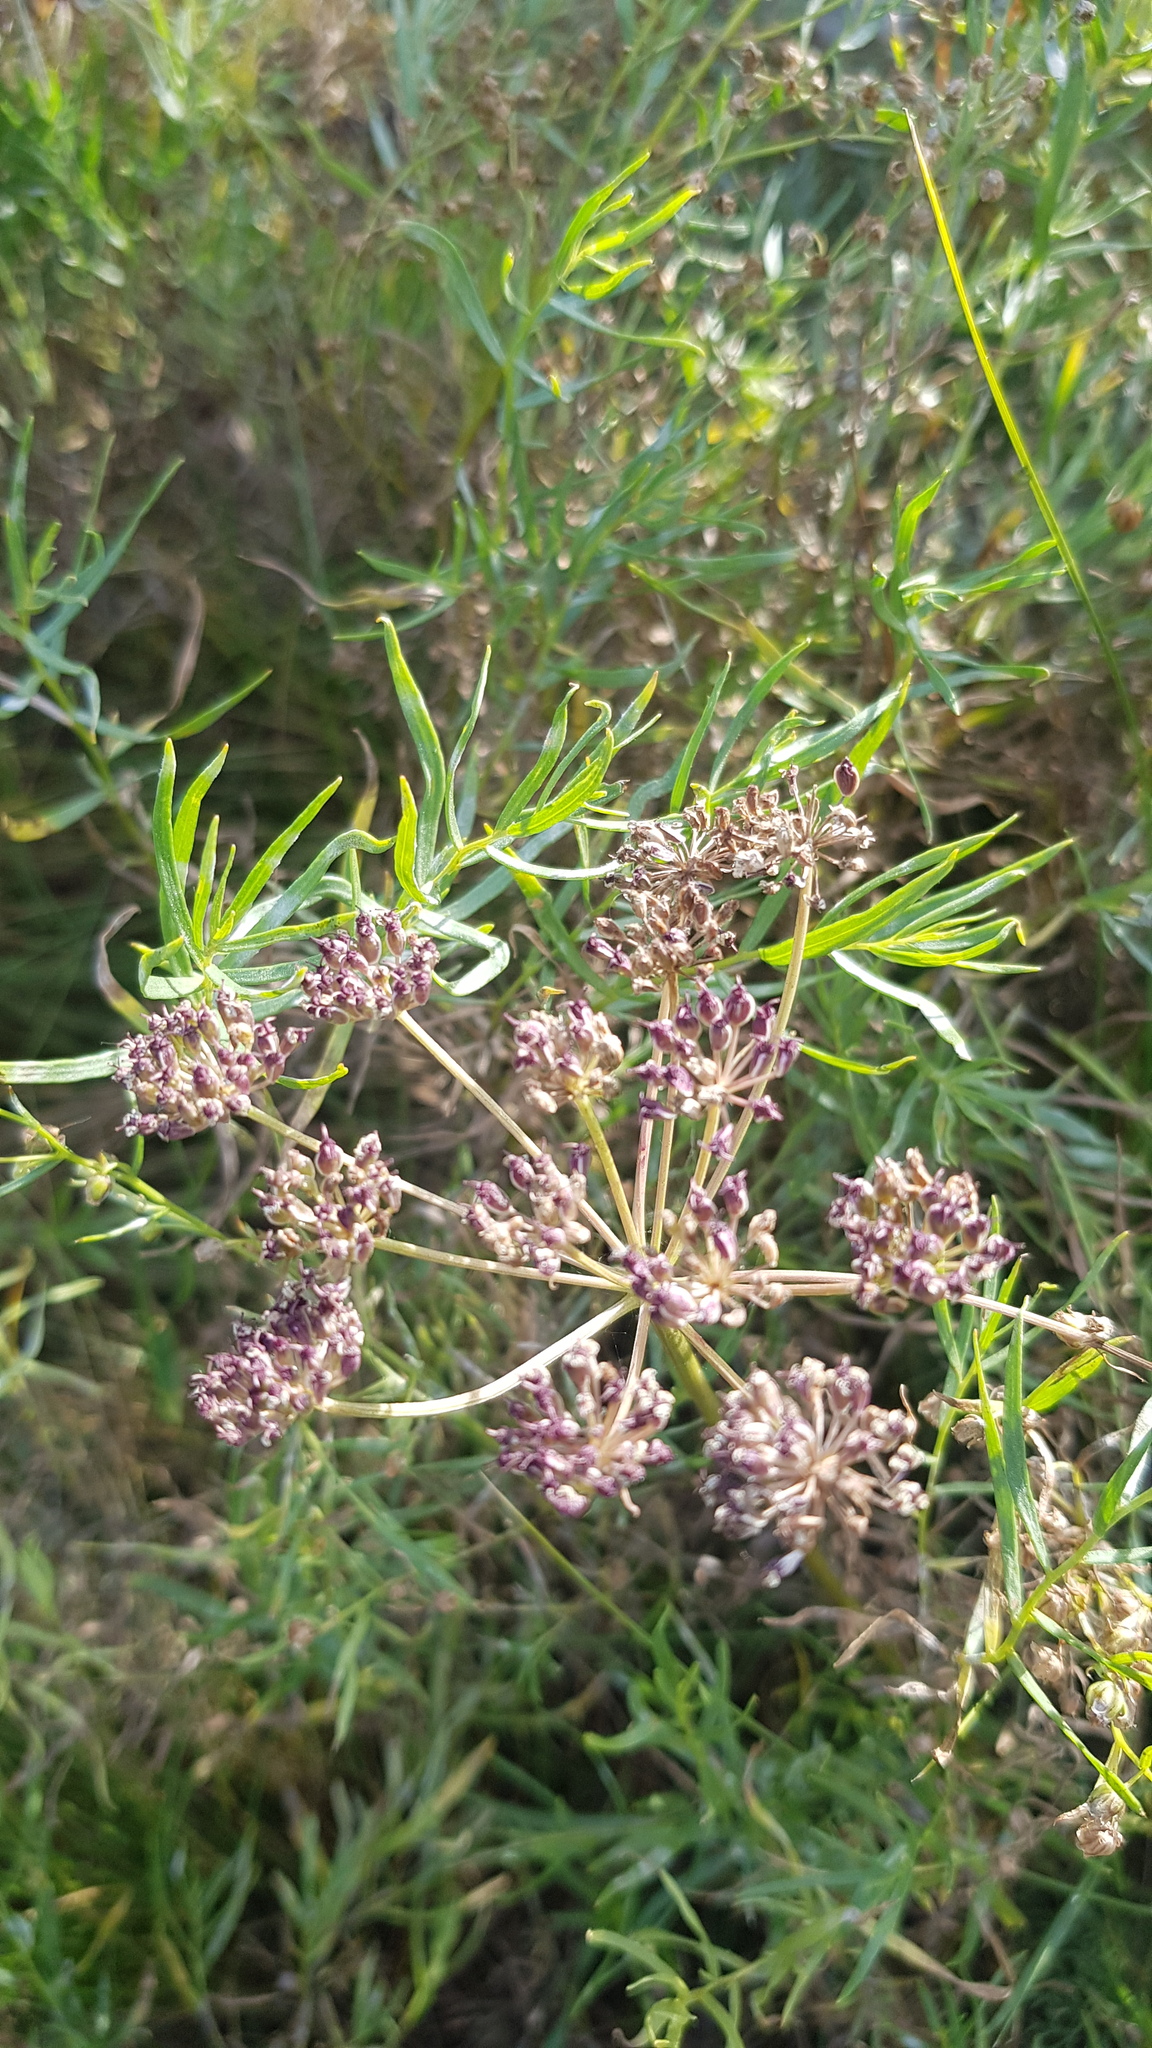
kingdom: Plantae
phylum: Tracheophyta
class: Magnoliopsida
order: Apiales
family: Apiaceae
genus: Peucedanum
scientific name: Peucedanum vaginatum
